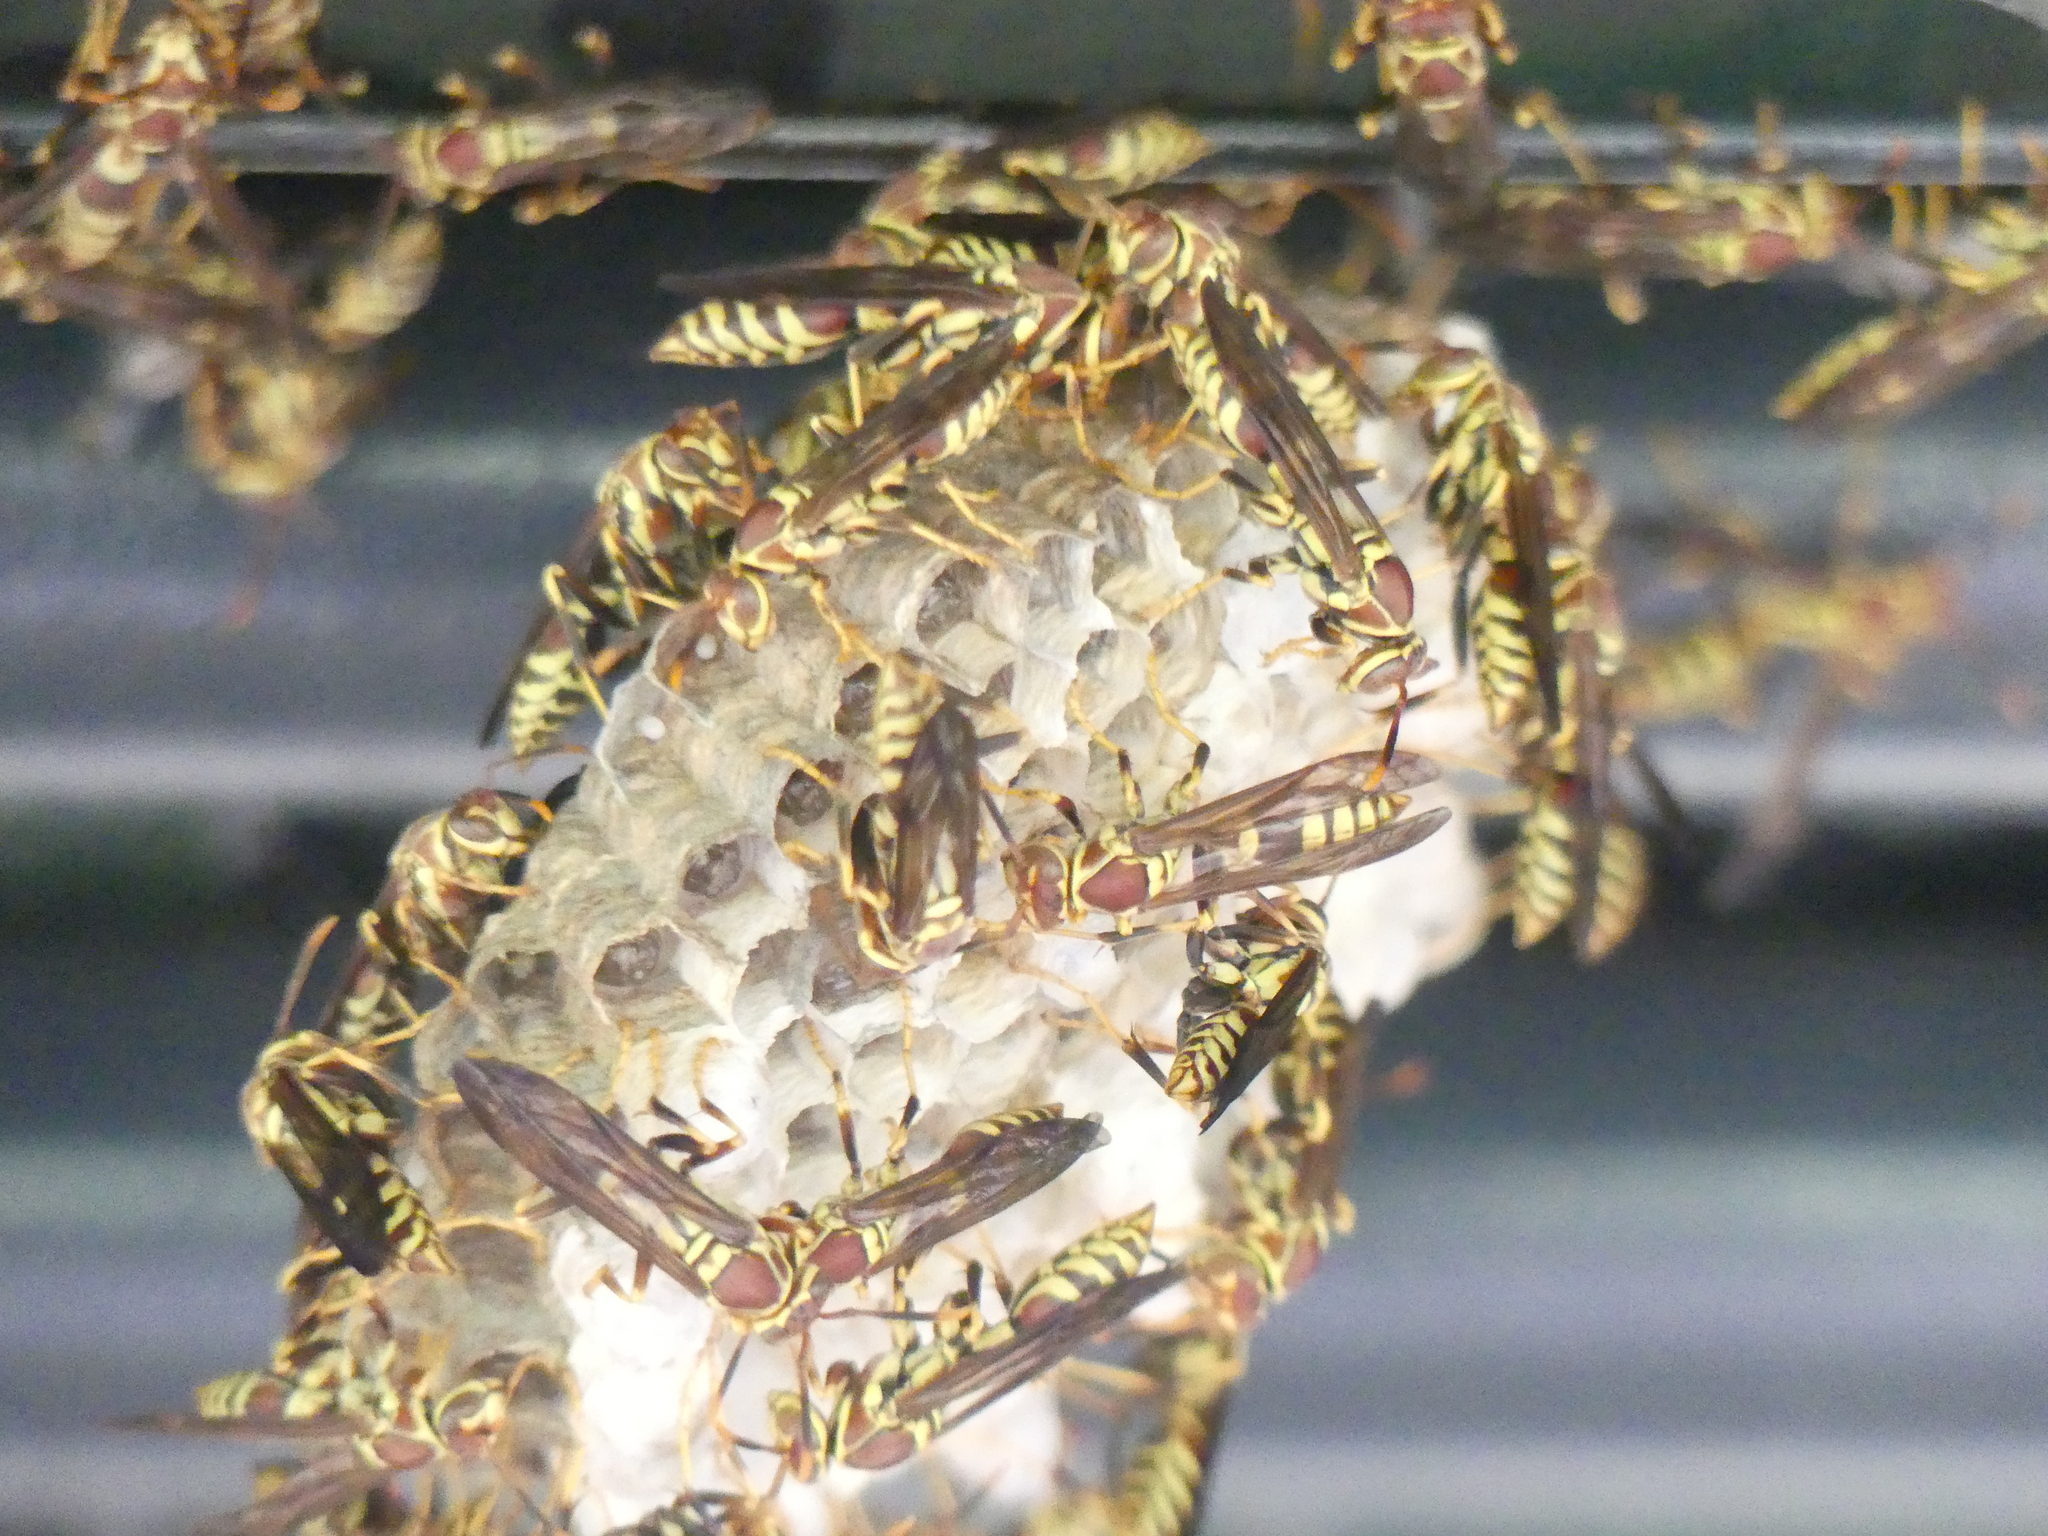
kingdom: Animalia
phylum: Arthropoda
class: Insecta
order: Hymenoptera
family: Eumenidae
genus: Polistes
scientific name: Polistes exclamans
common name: Paper wasp
